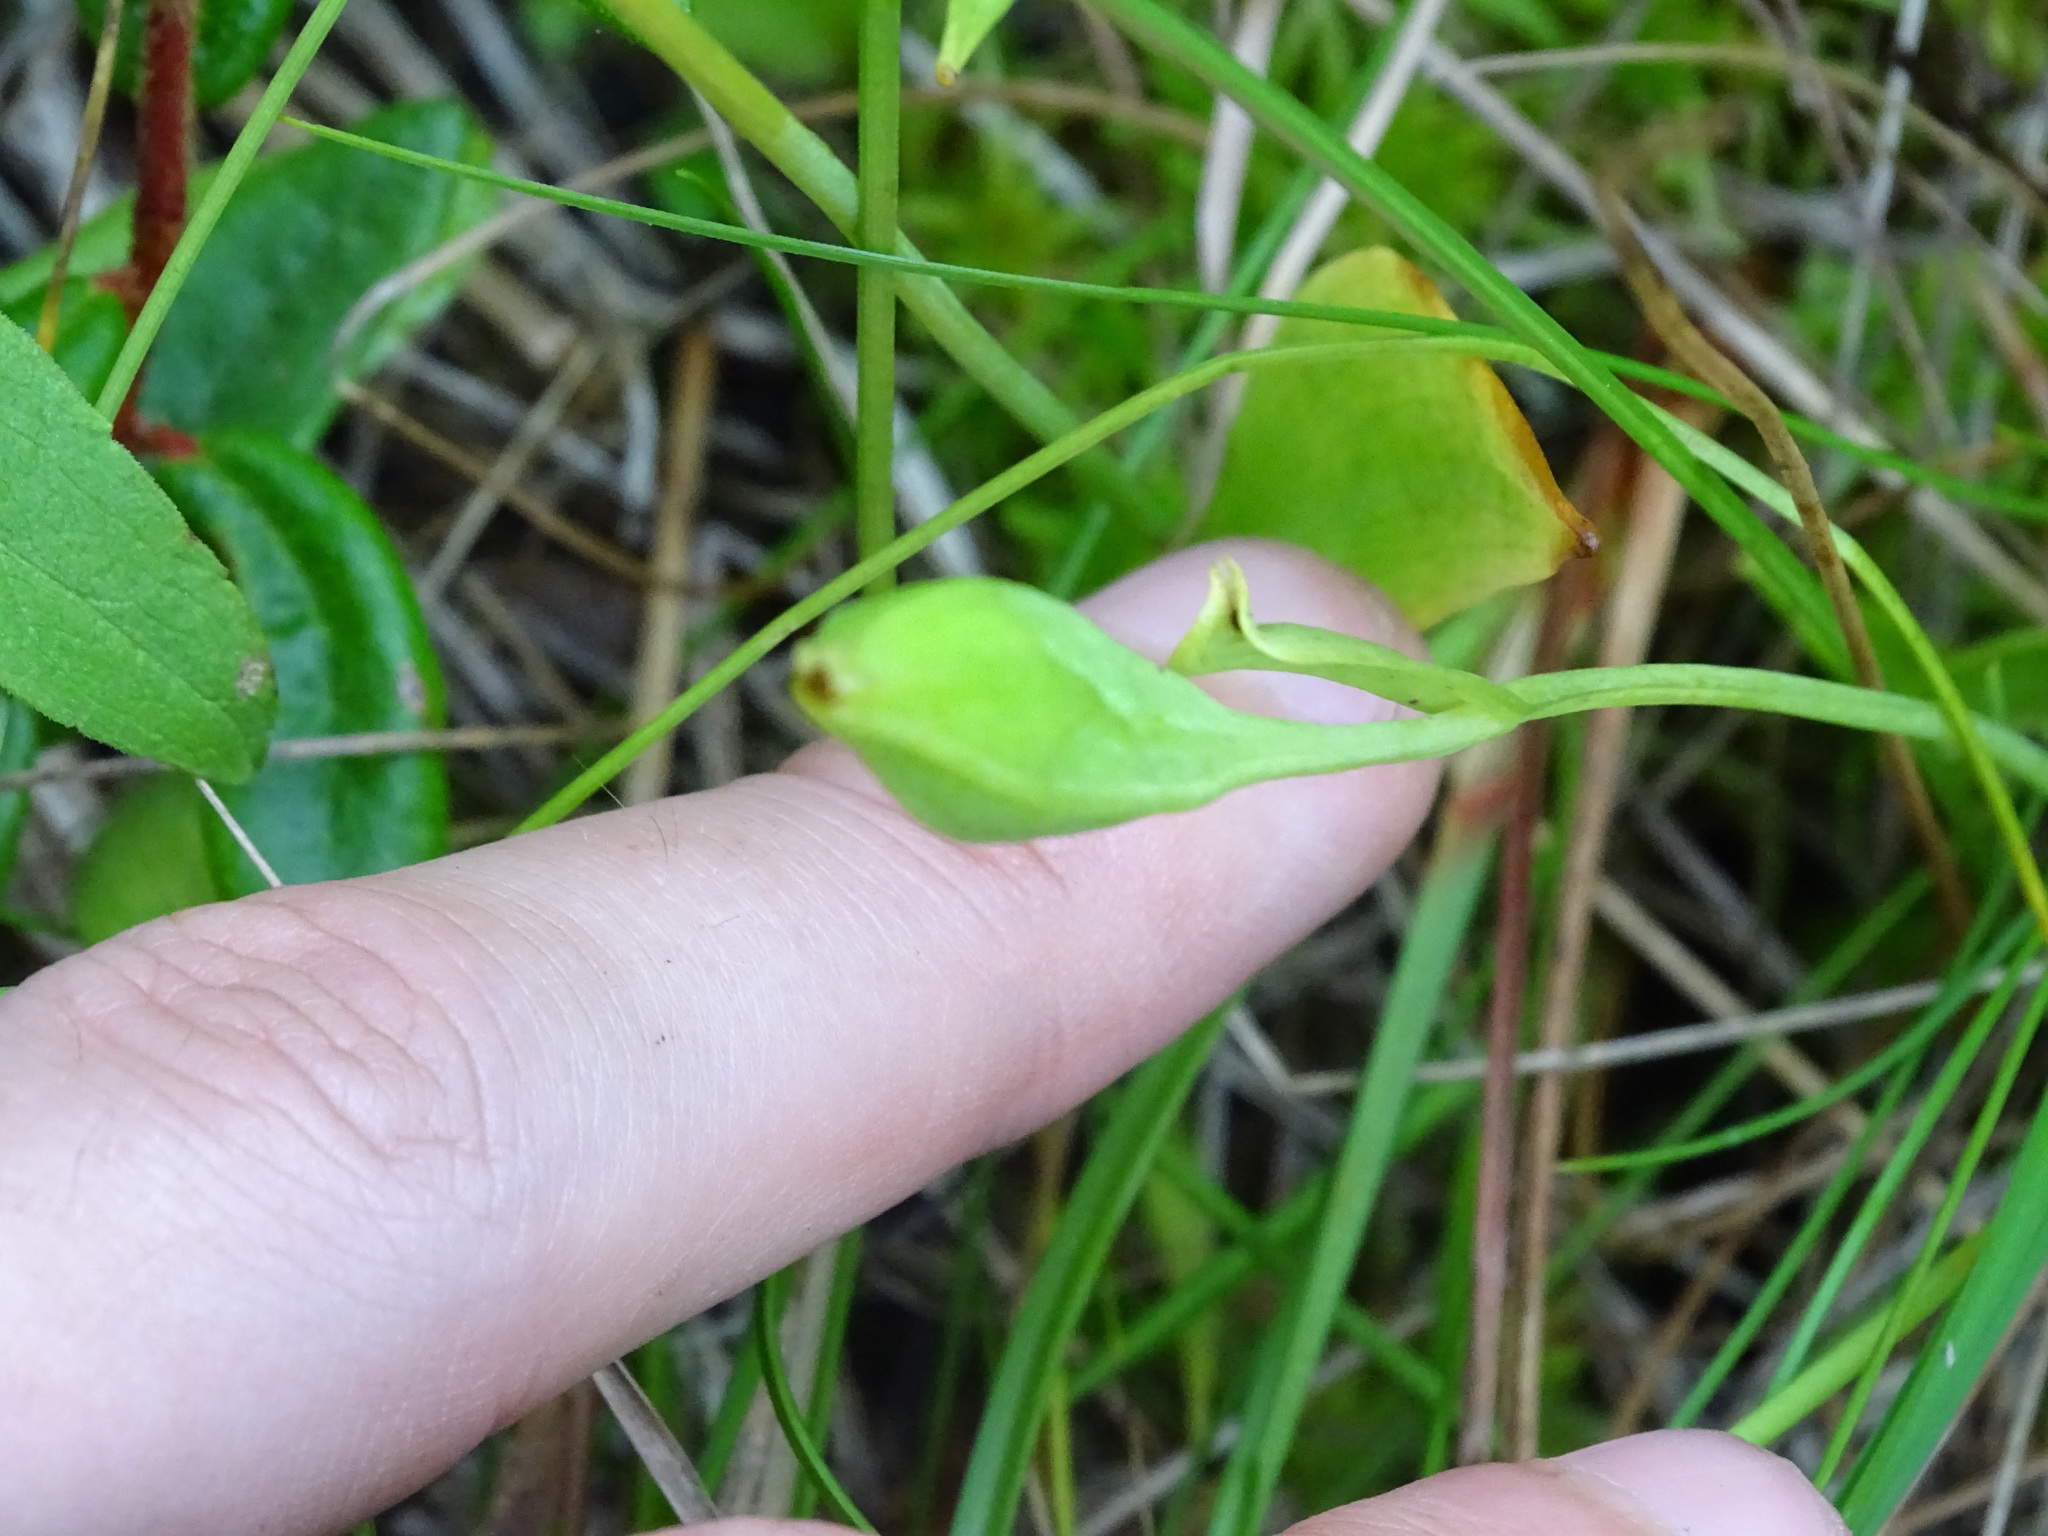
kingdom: Plantae
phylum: Tracheophyta
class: Liliopsida
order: Asparagales
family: Orchidaceae
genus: Pogonia
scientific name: Pogonia ophioglossoides
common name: Rose pogonia
